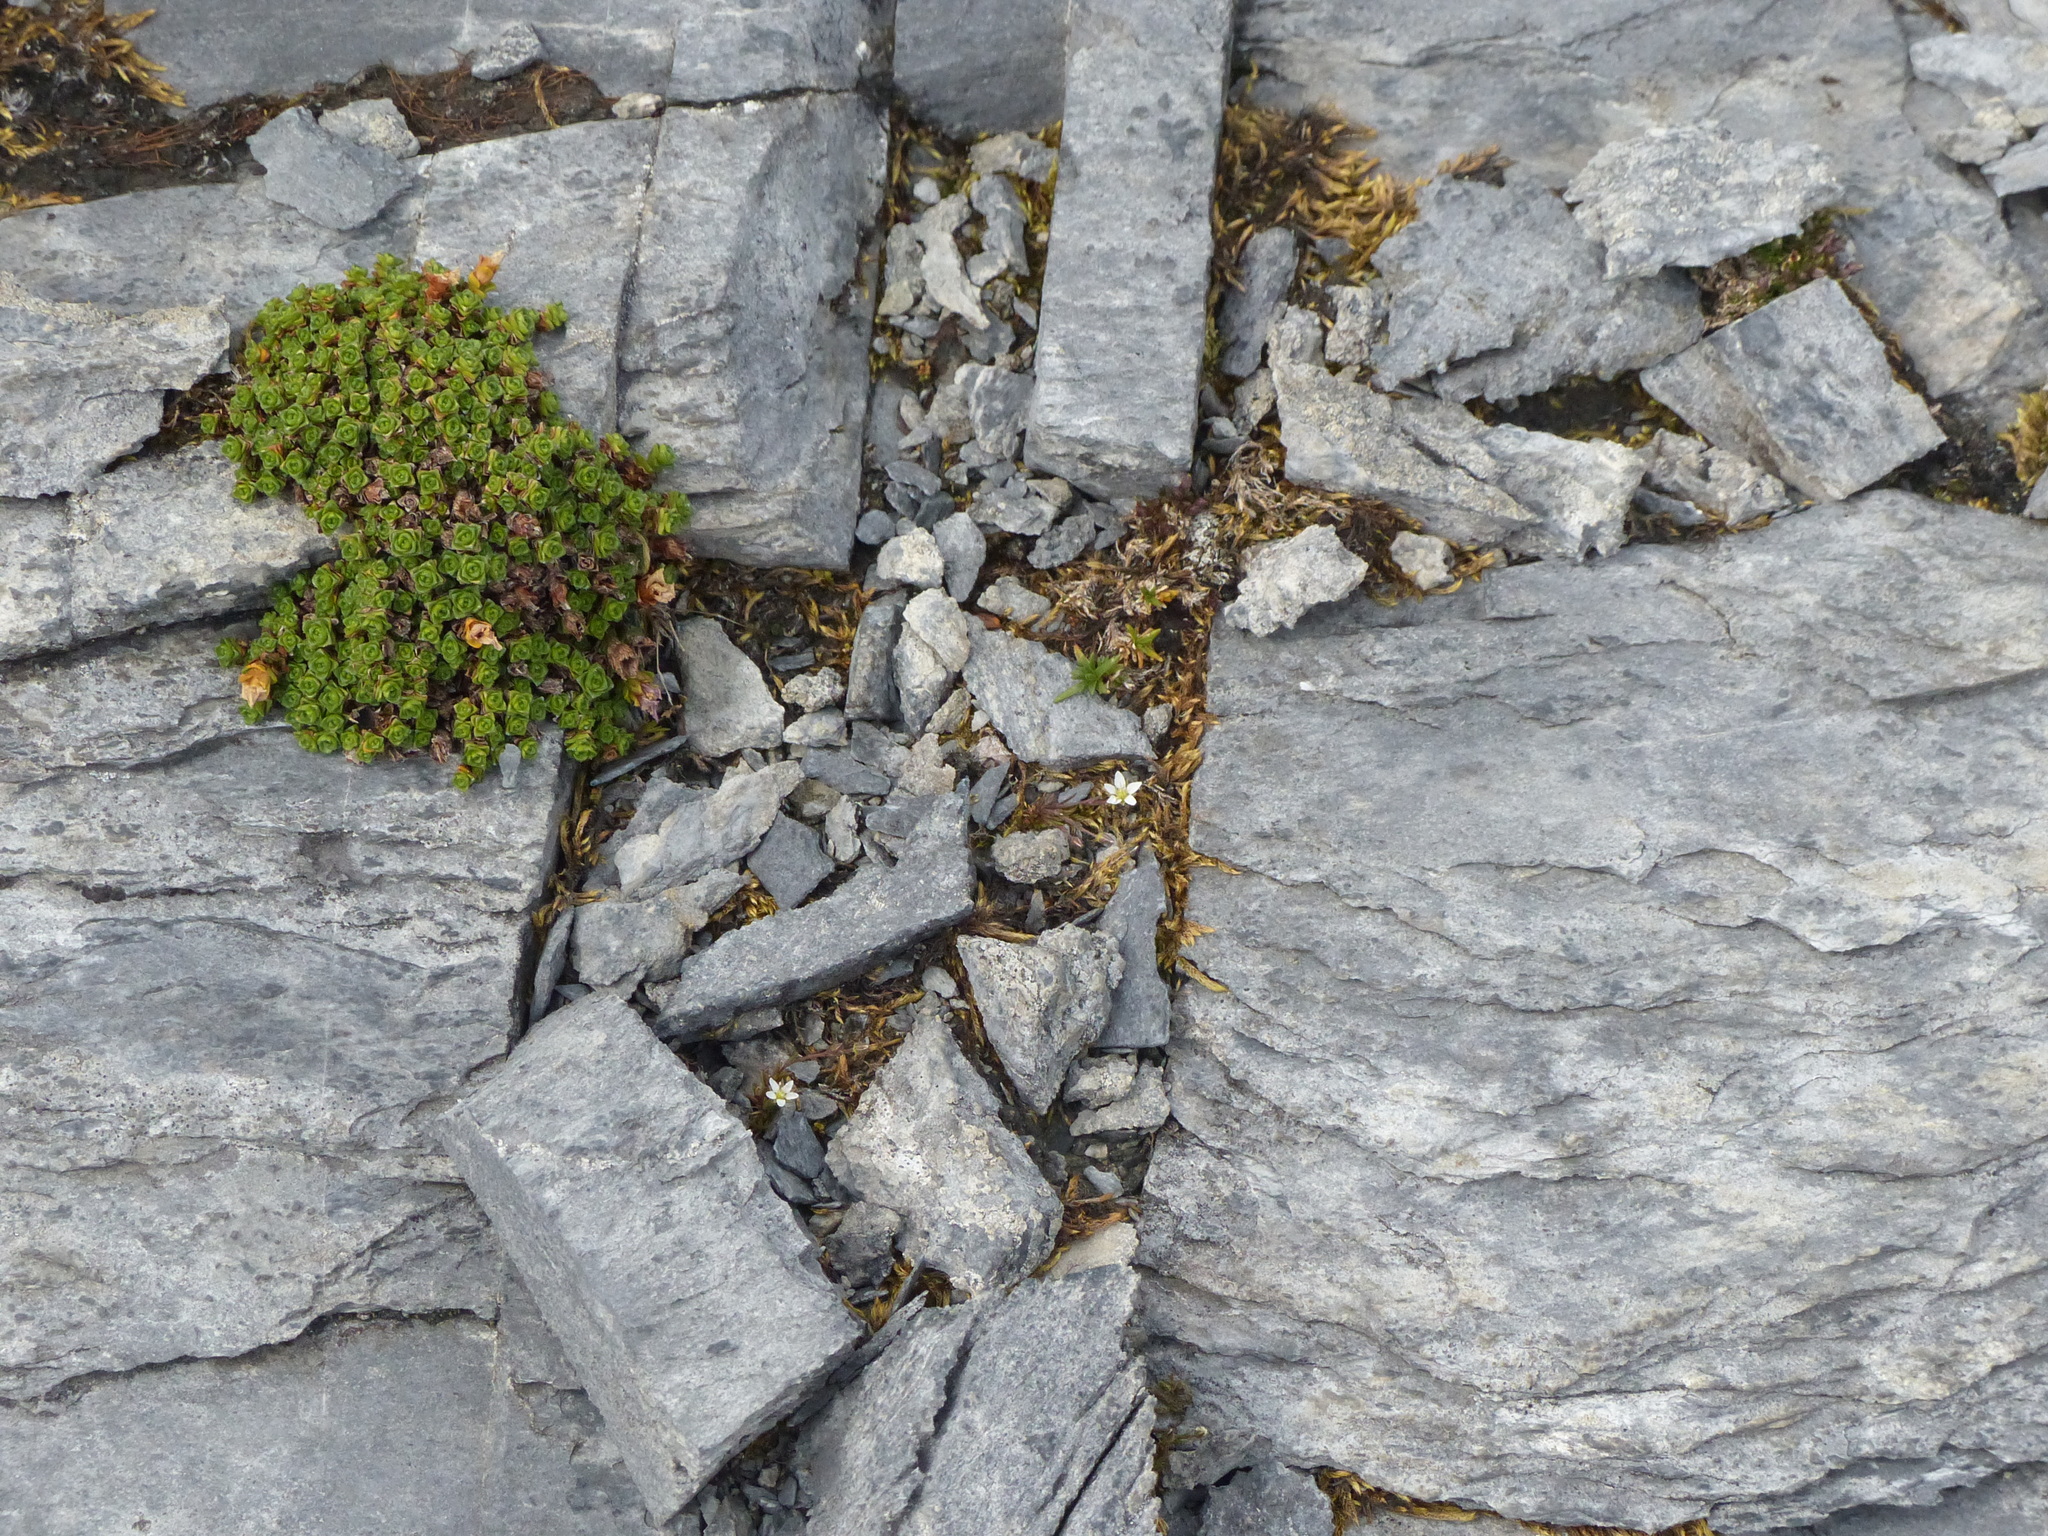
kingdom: Plantae
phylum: Tracheophyta
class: Magnoliopsida
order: Saxifragales
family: Saxifragaceae
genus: Saxifraga
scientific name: Saxifraga oppositifolia
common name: Purple saxifrage
